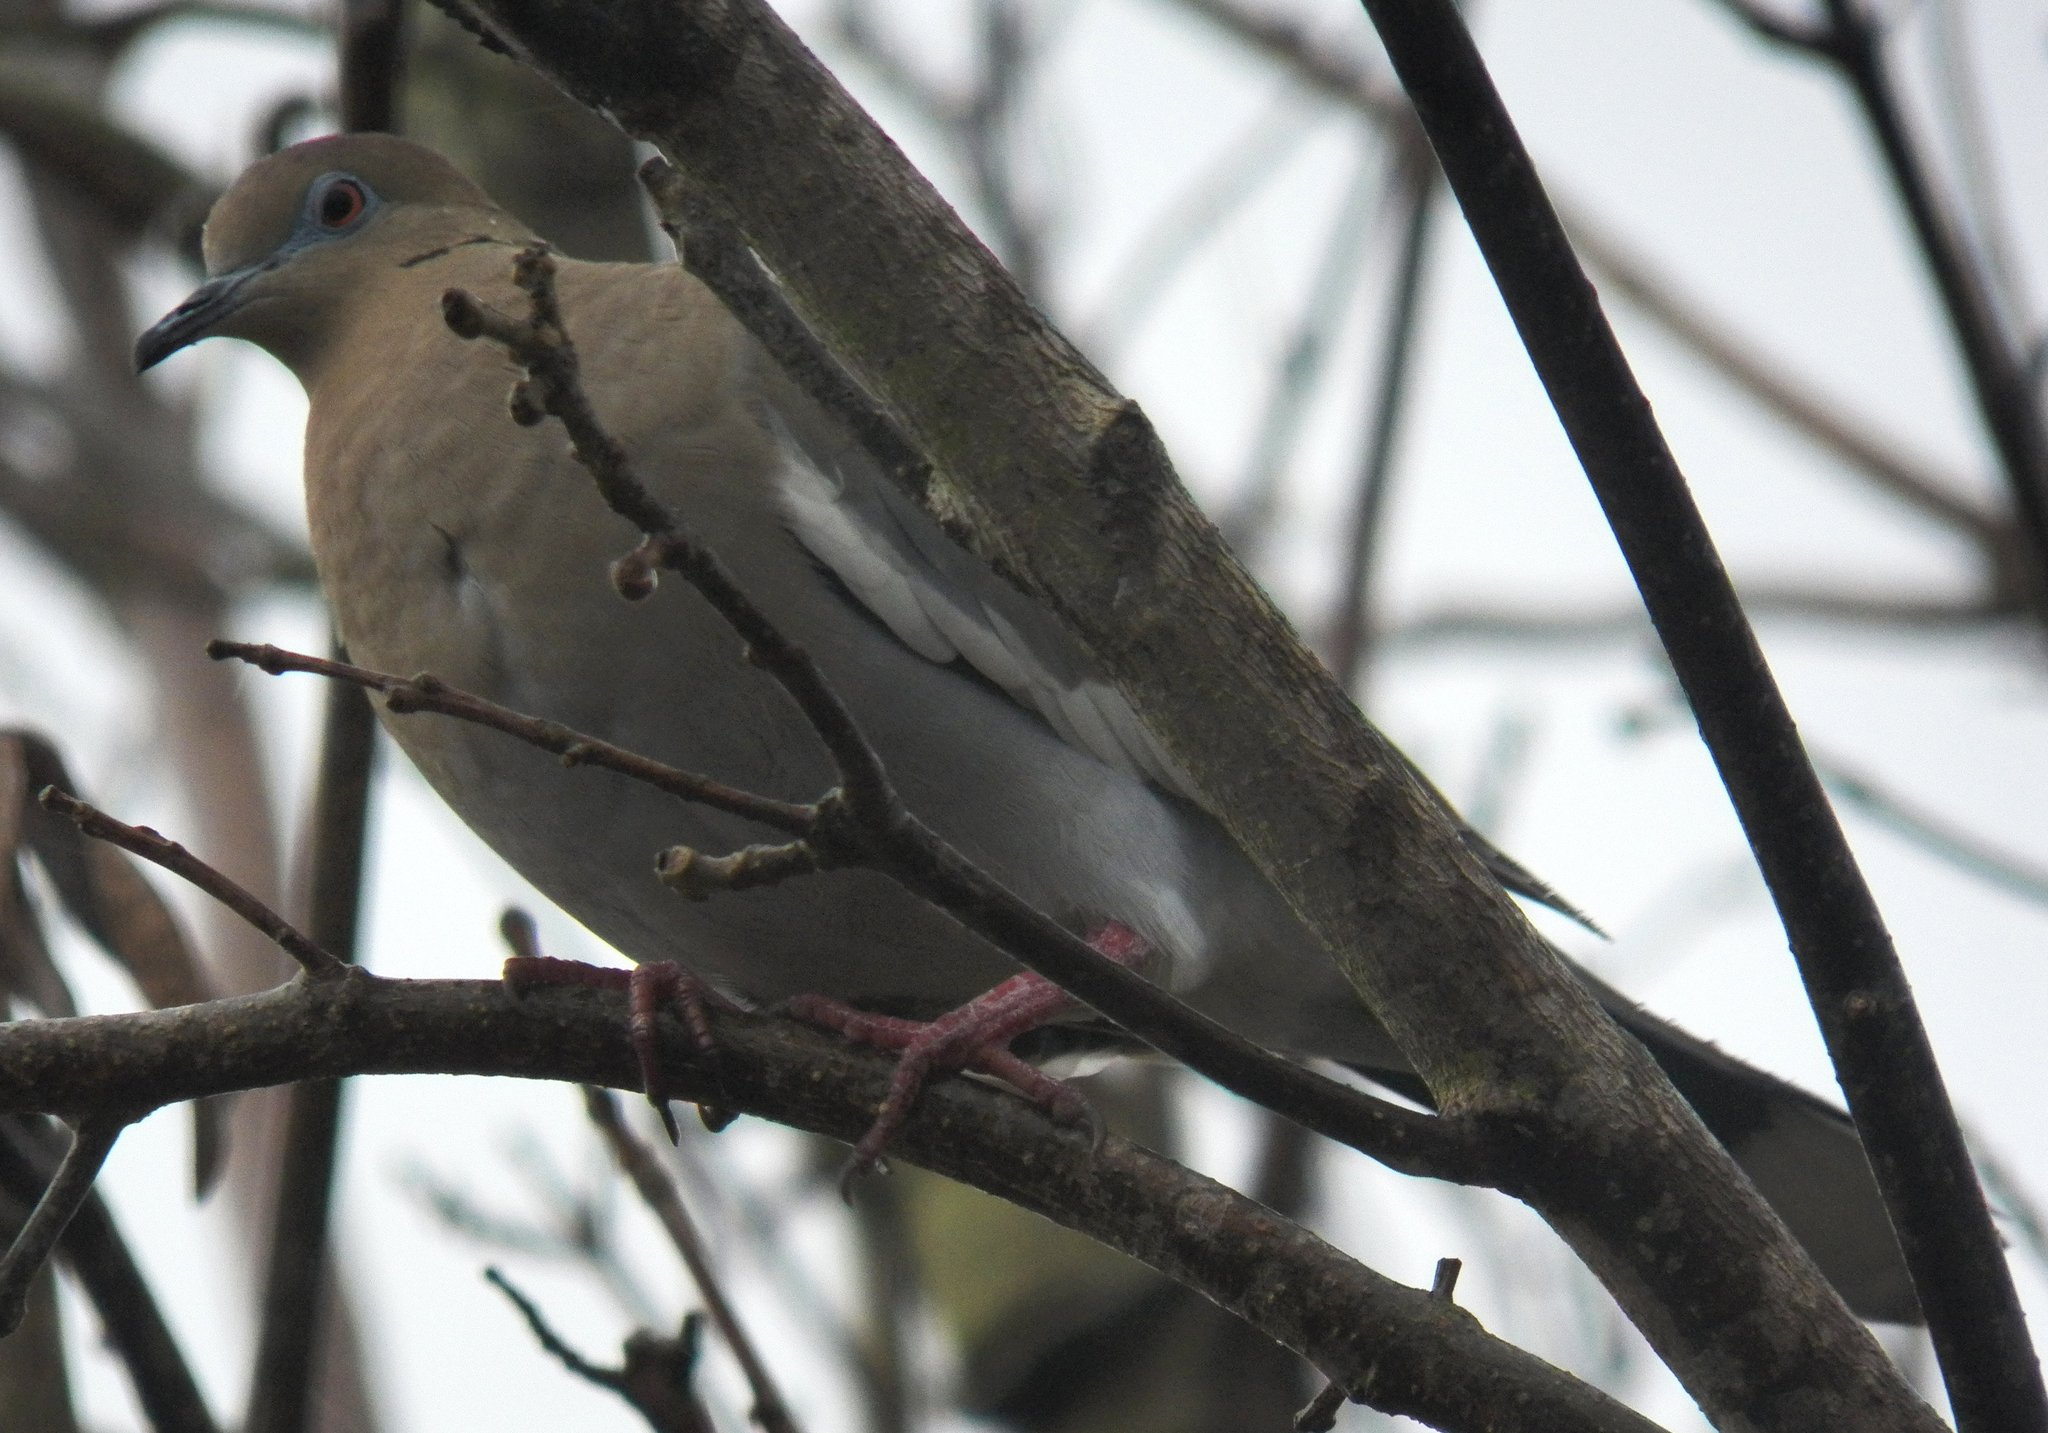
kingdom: Animalia
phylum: Chordata
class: Aves
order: Columbiformes
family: Columbidae
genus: Zenaida
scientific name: Zenaida asiatica
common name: White-winged dove
